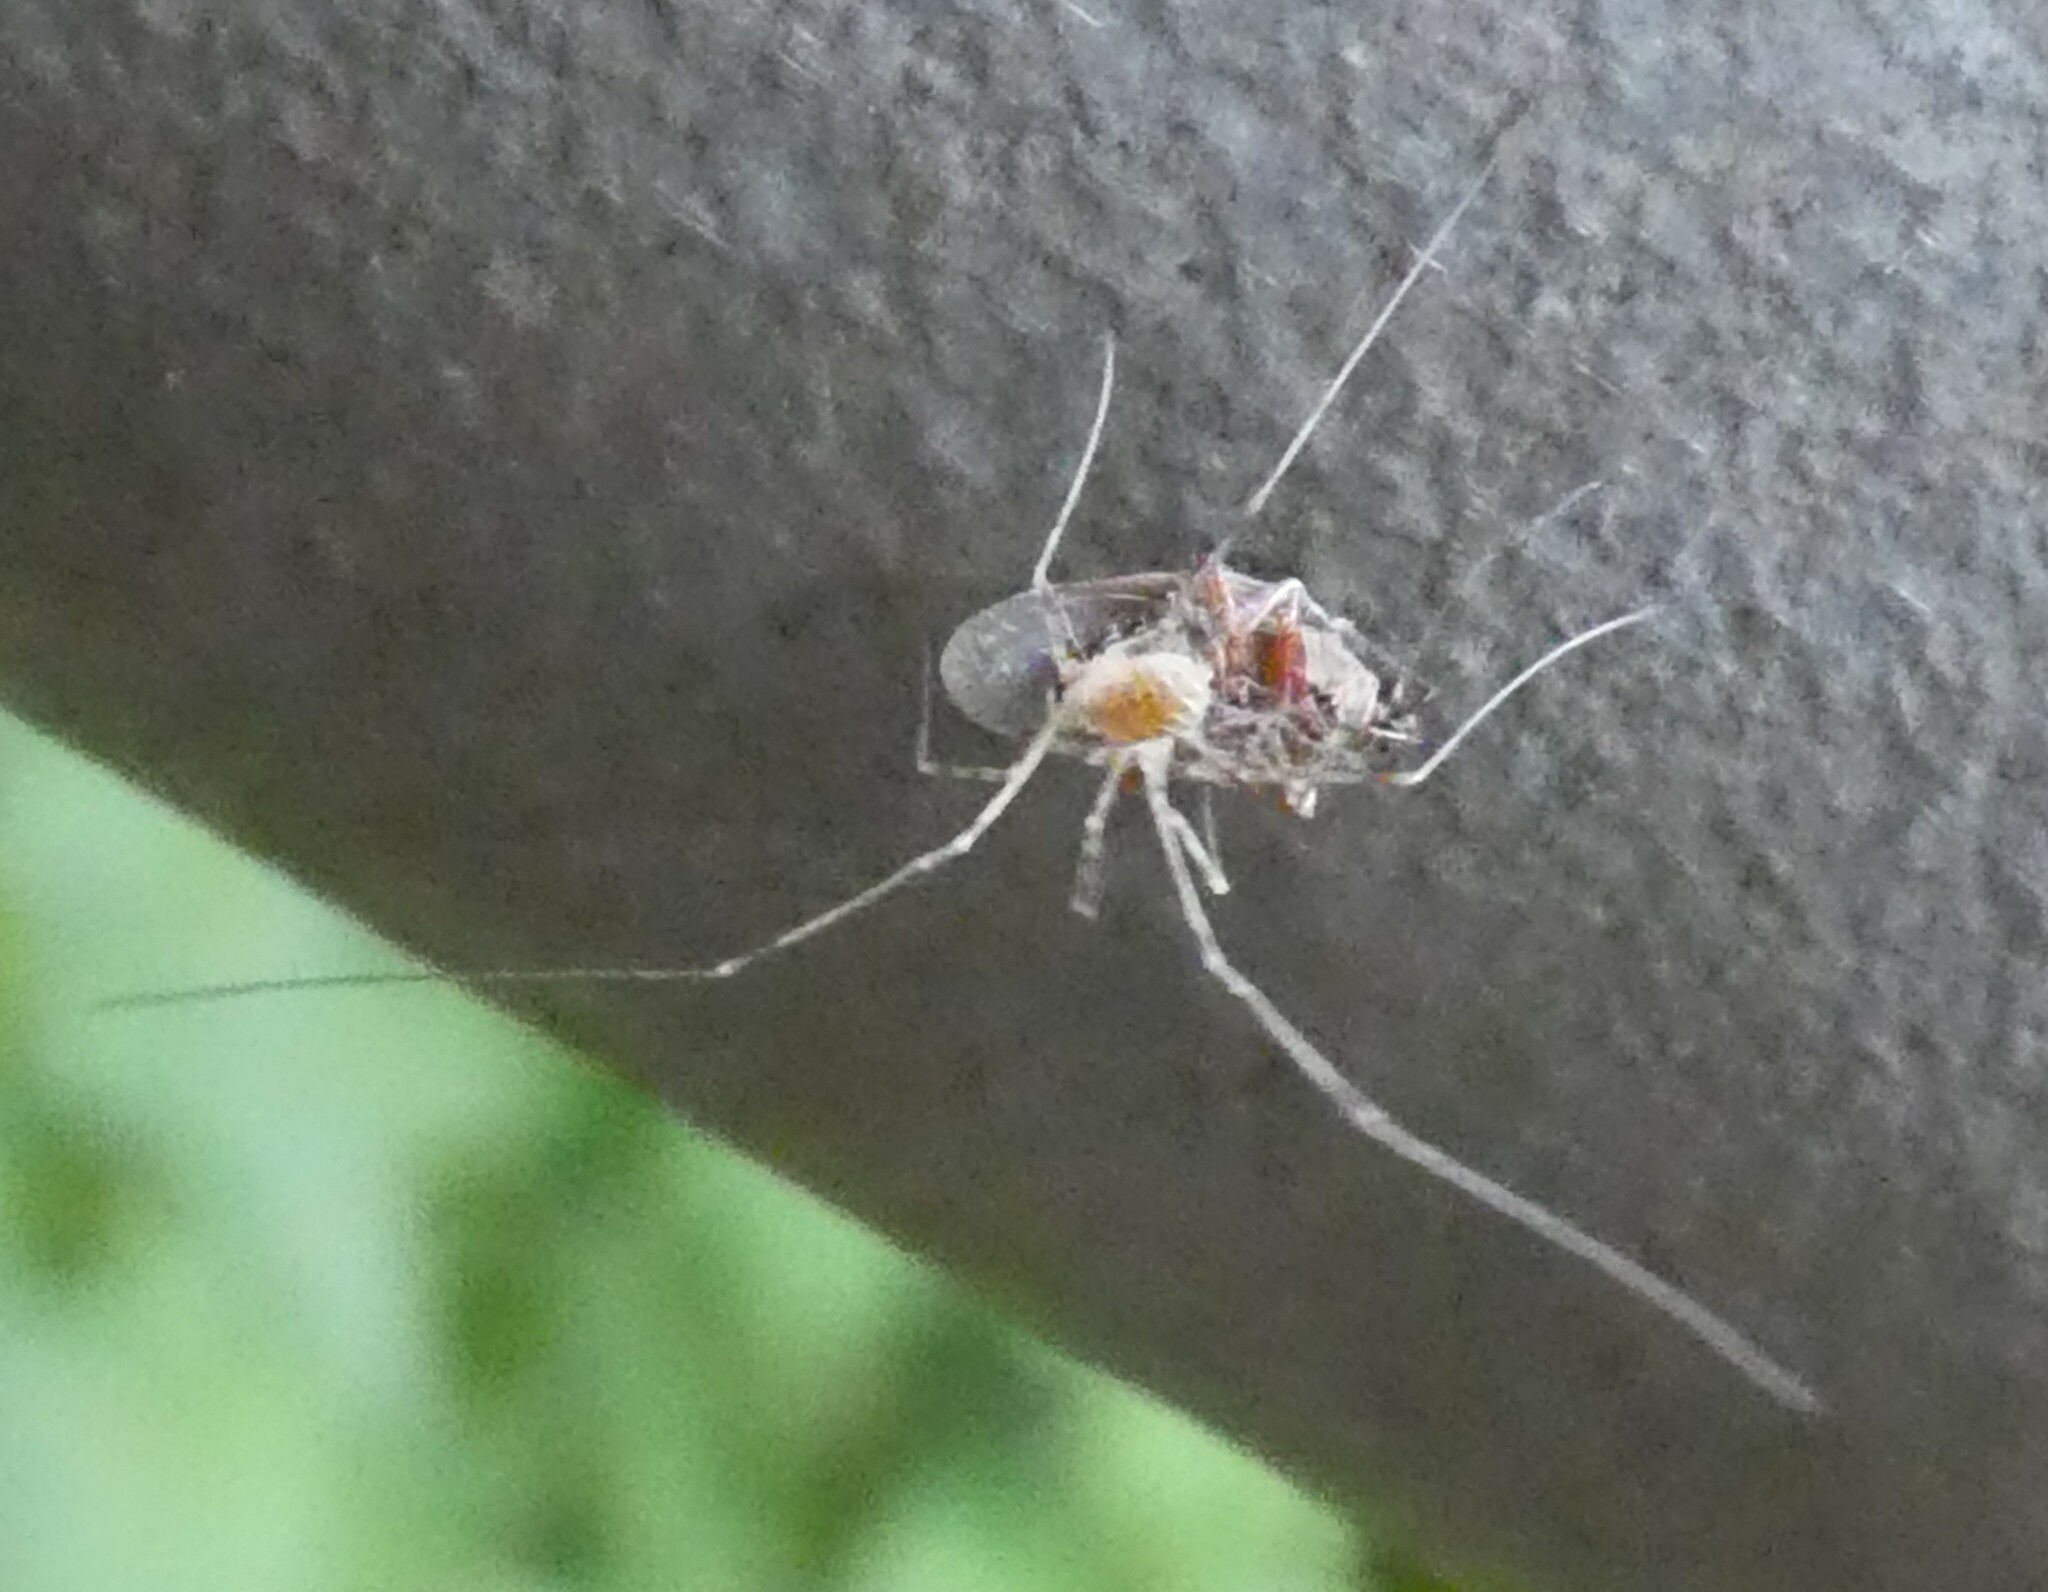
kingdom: Animalia
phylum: Arthropoda
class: Arachnida
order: Opiliones
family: Phalangiidae
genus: Opilio
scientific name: Opilio canestrinii
